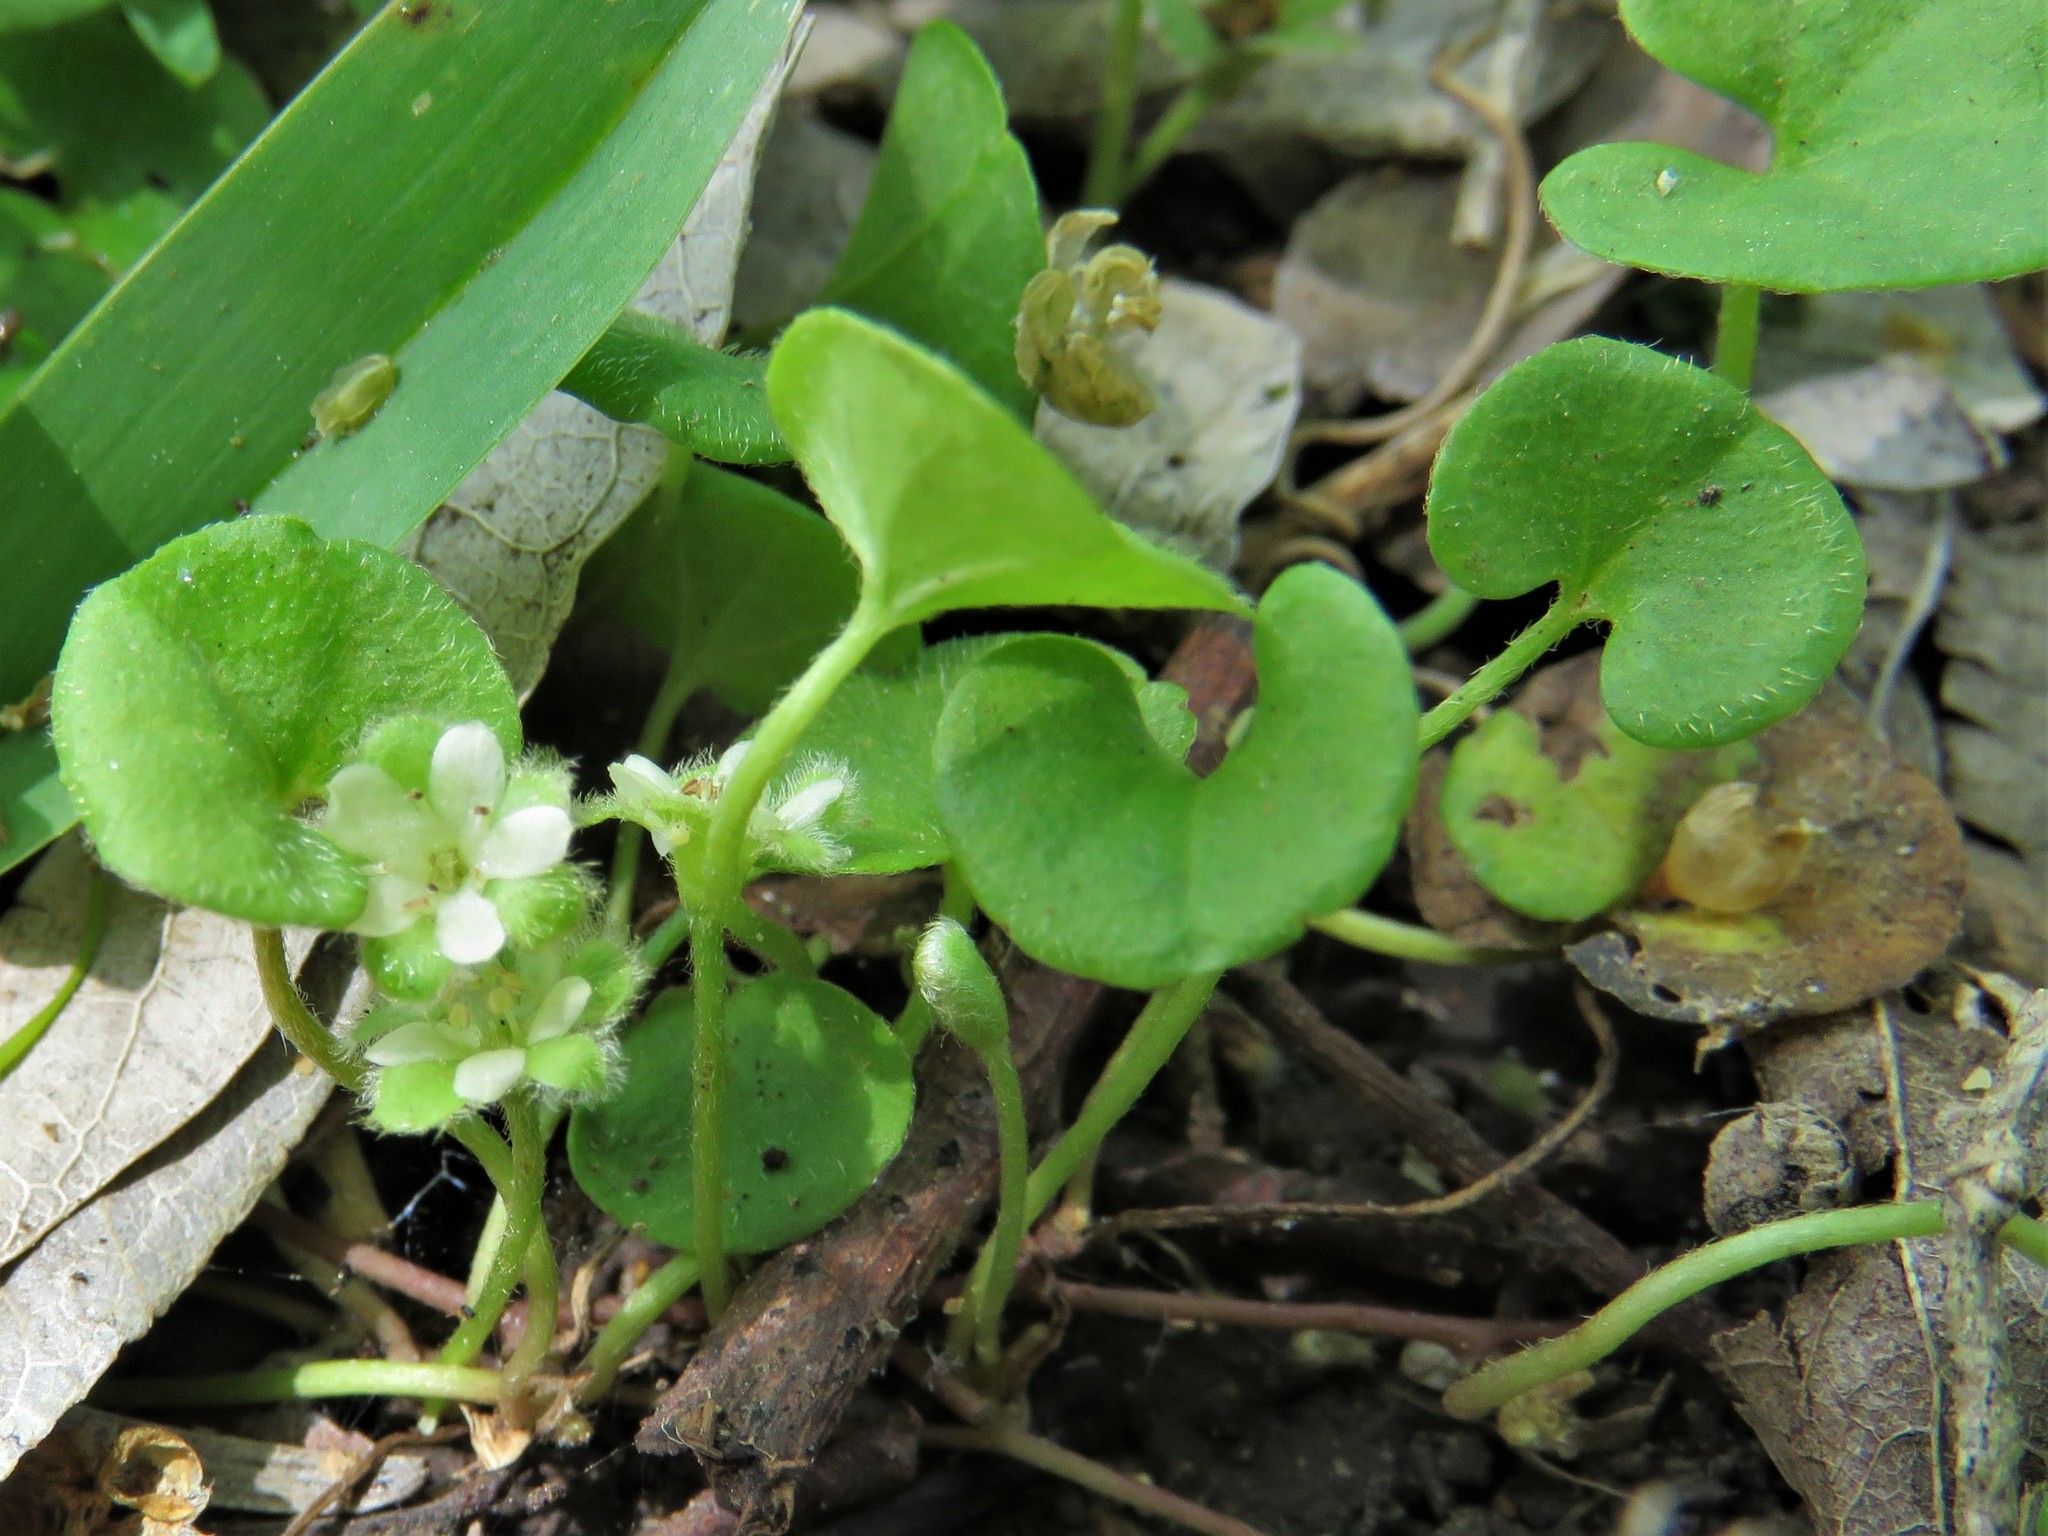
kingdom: Plantae
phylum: Tracheophyta
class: Magnoliopsida
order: Solanales
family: Convolvulaceae
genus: Dichondra
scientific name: Dichondra carolinensis
